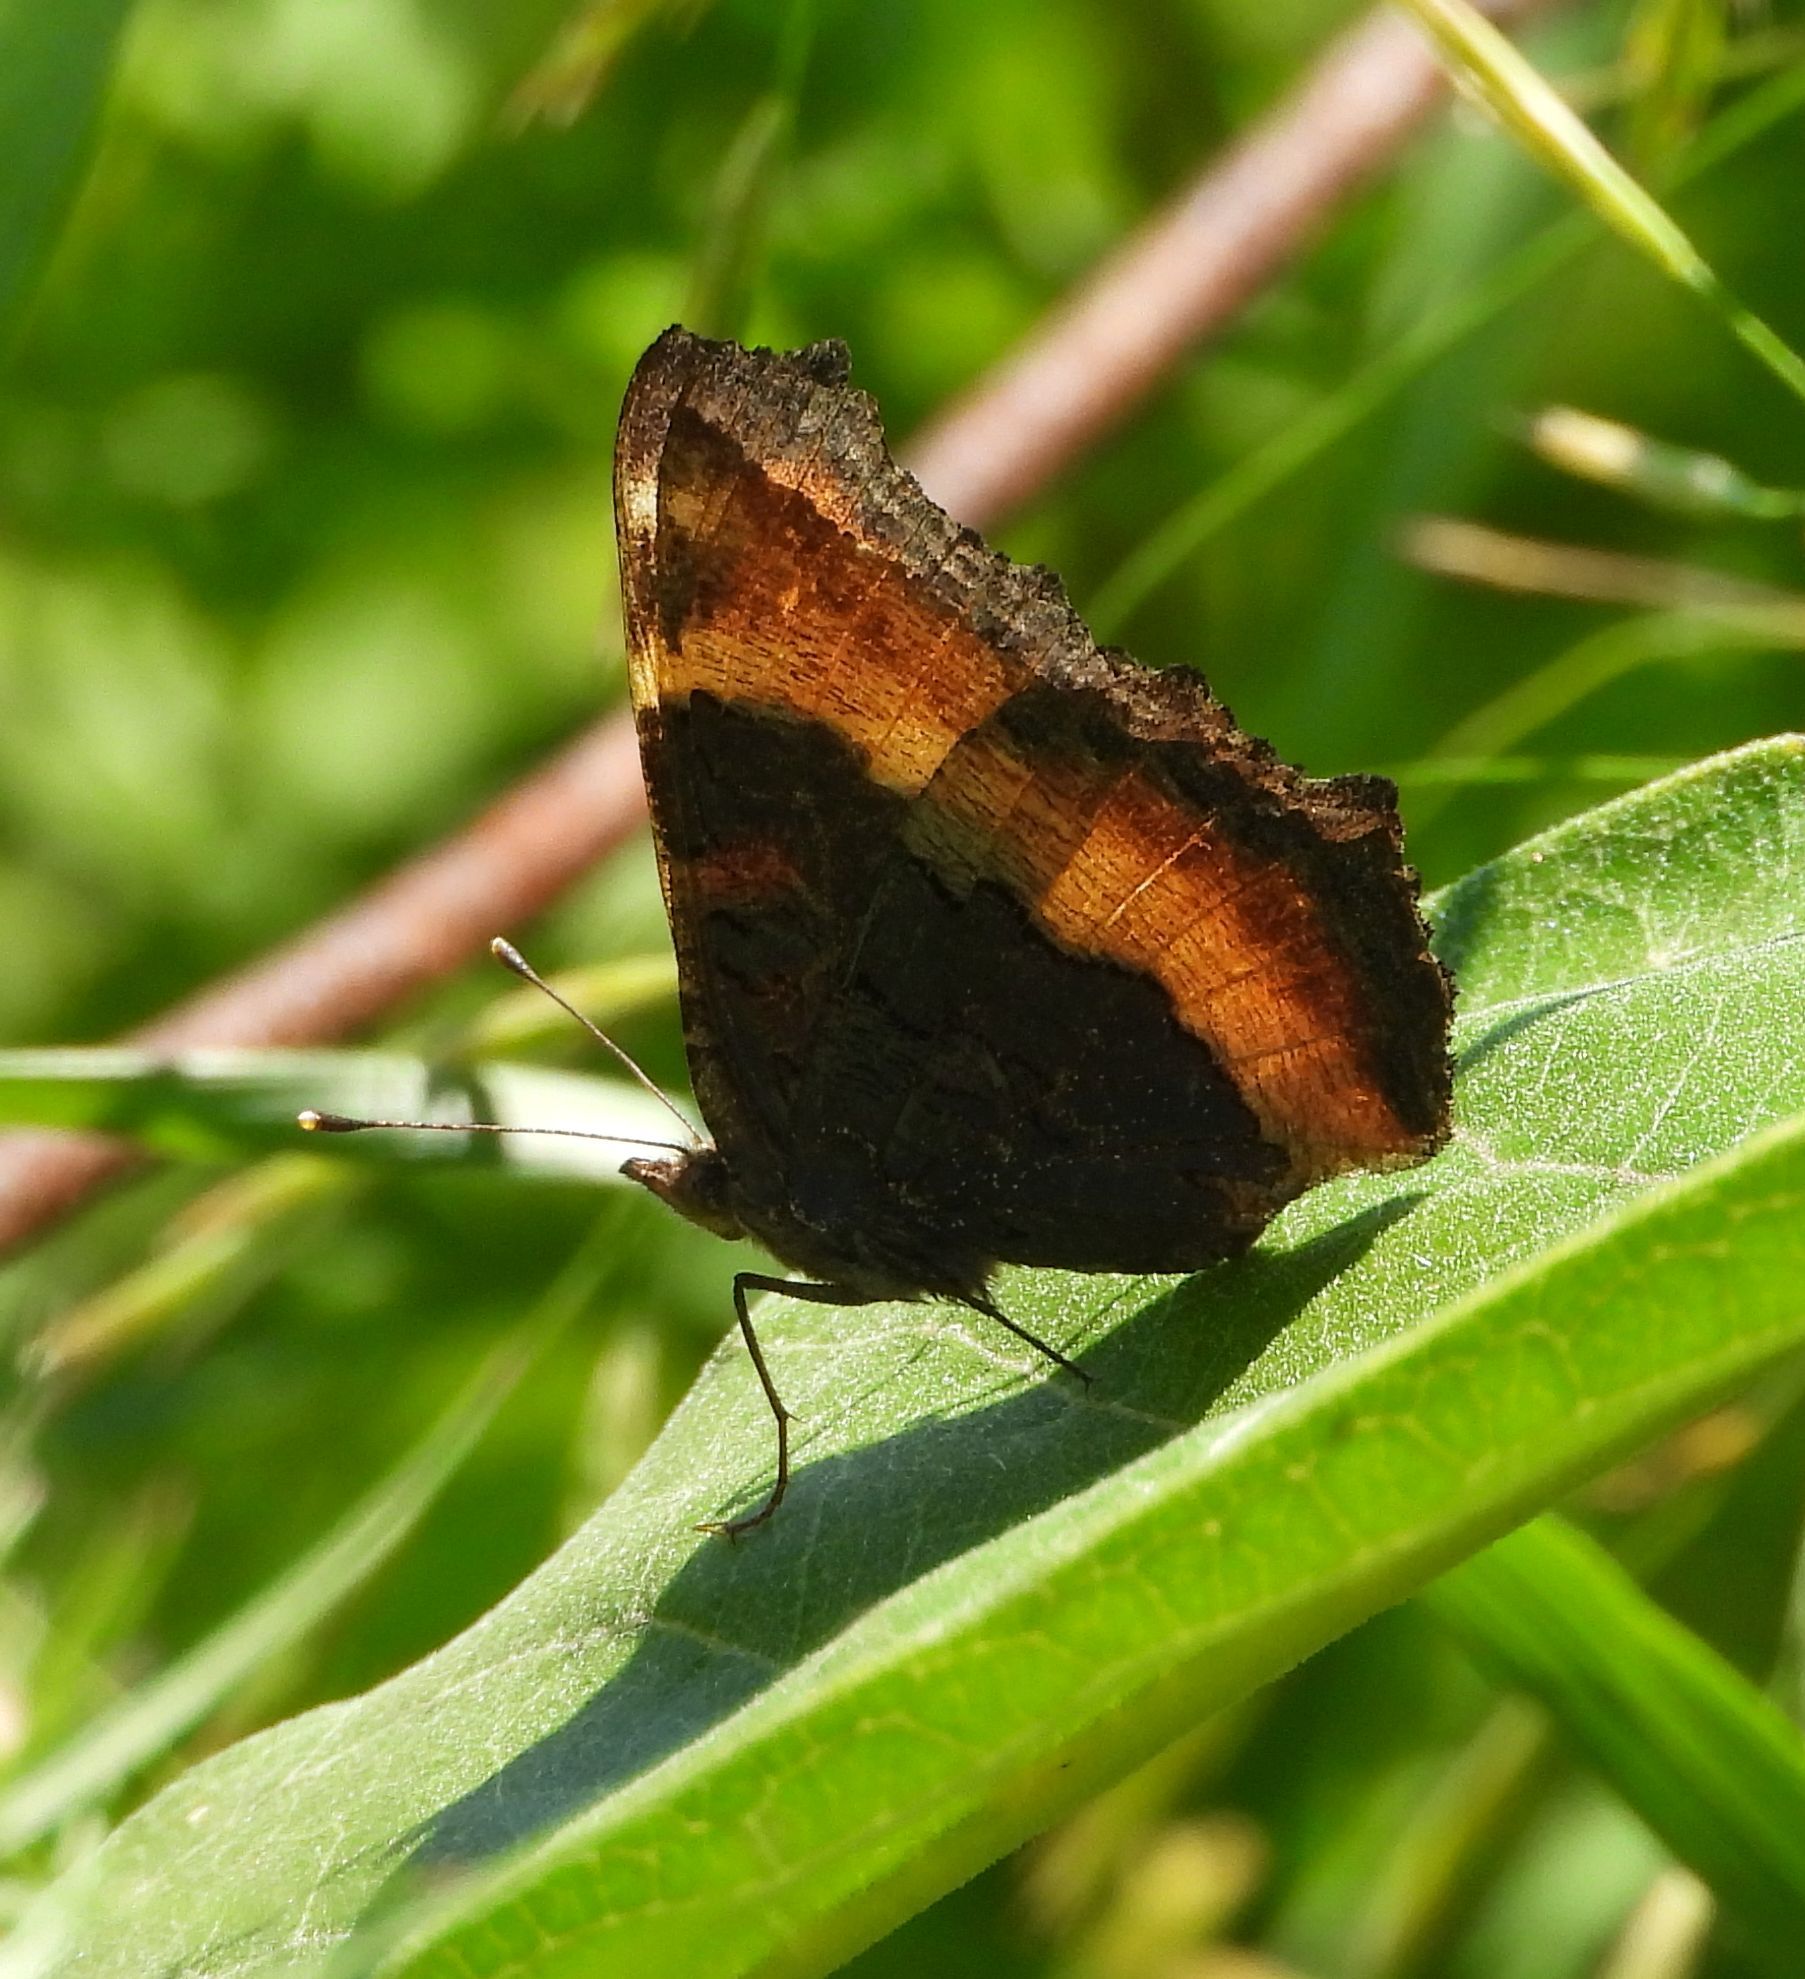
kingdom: Animalia
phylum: Arthropoda
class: Insecta
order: Lepidoptera
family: Nymphalidae
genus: Aglais
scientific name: Aglais milberti
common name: Milbert's tortoiseshell
